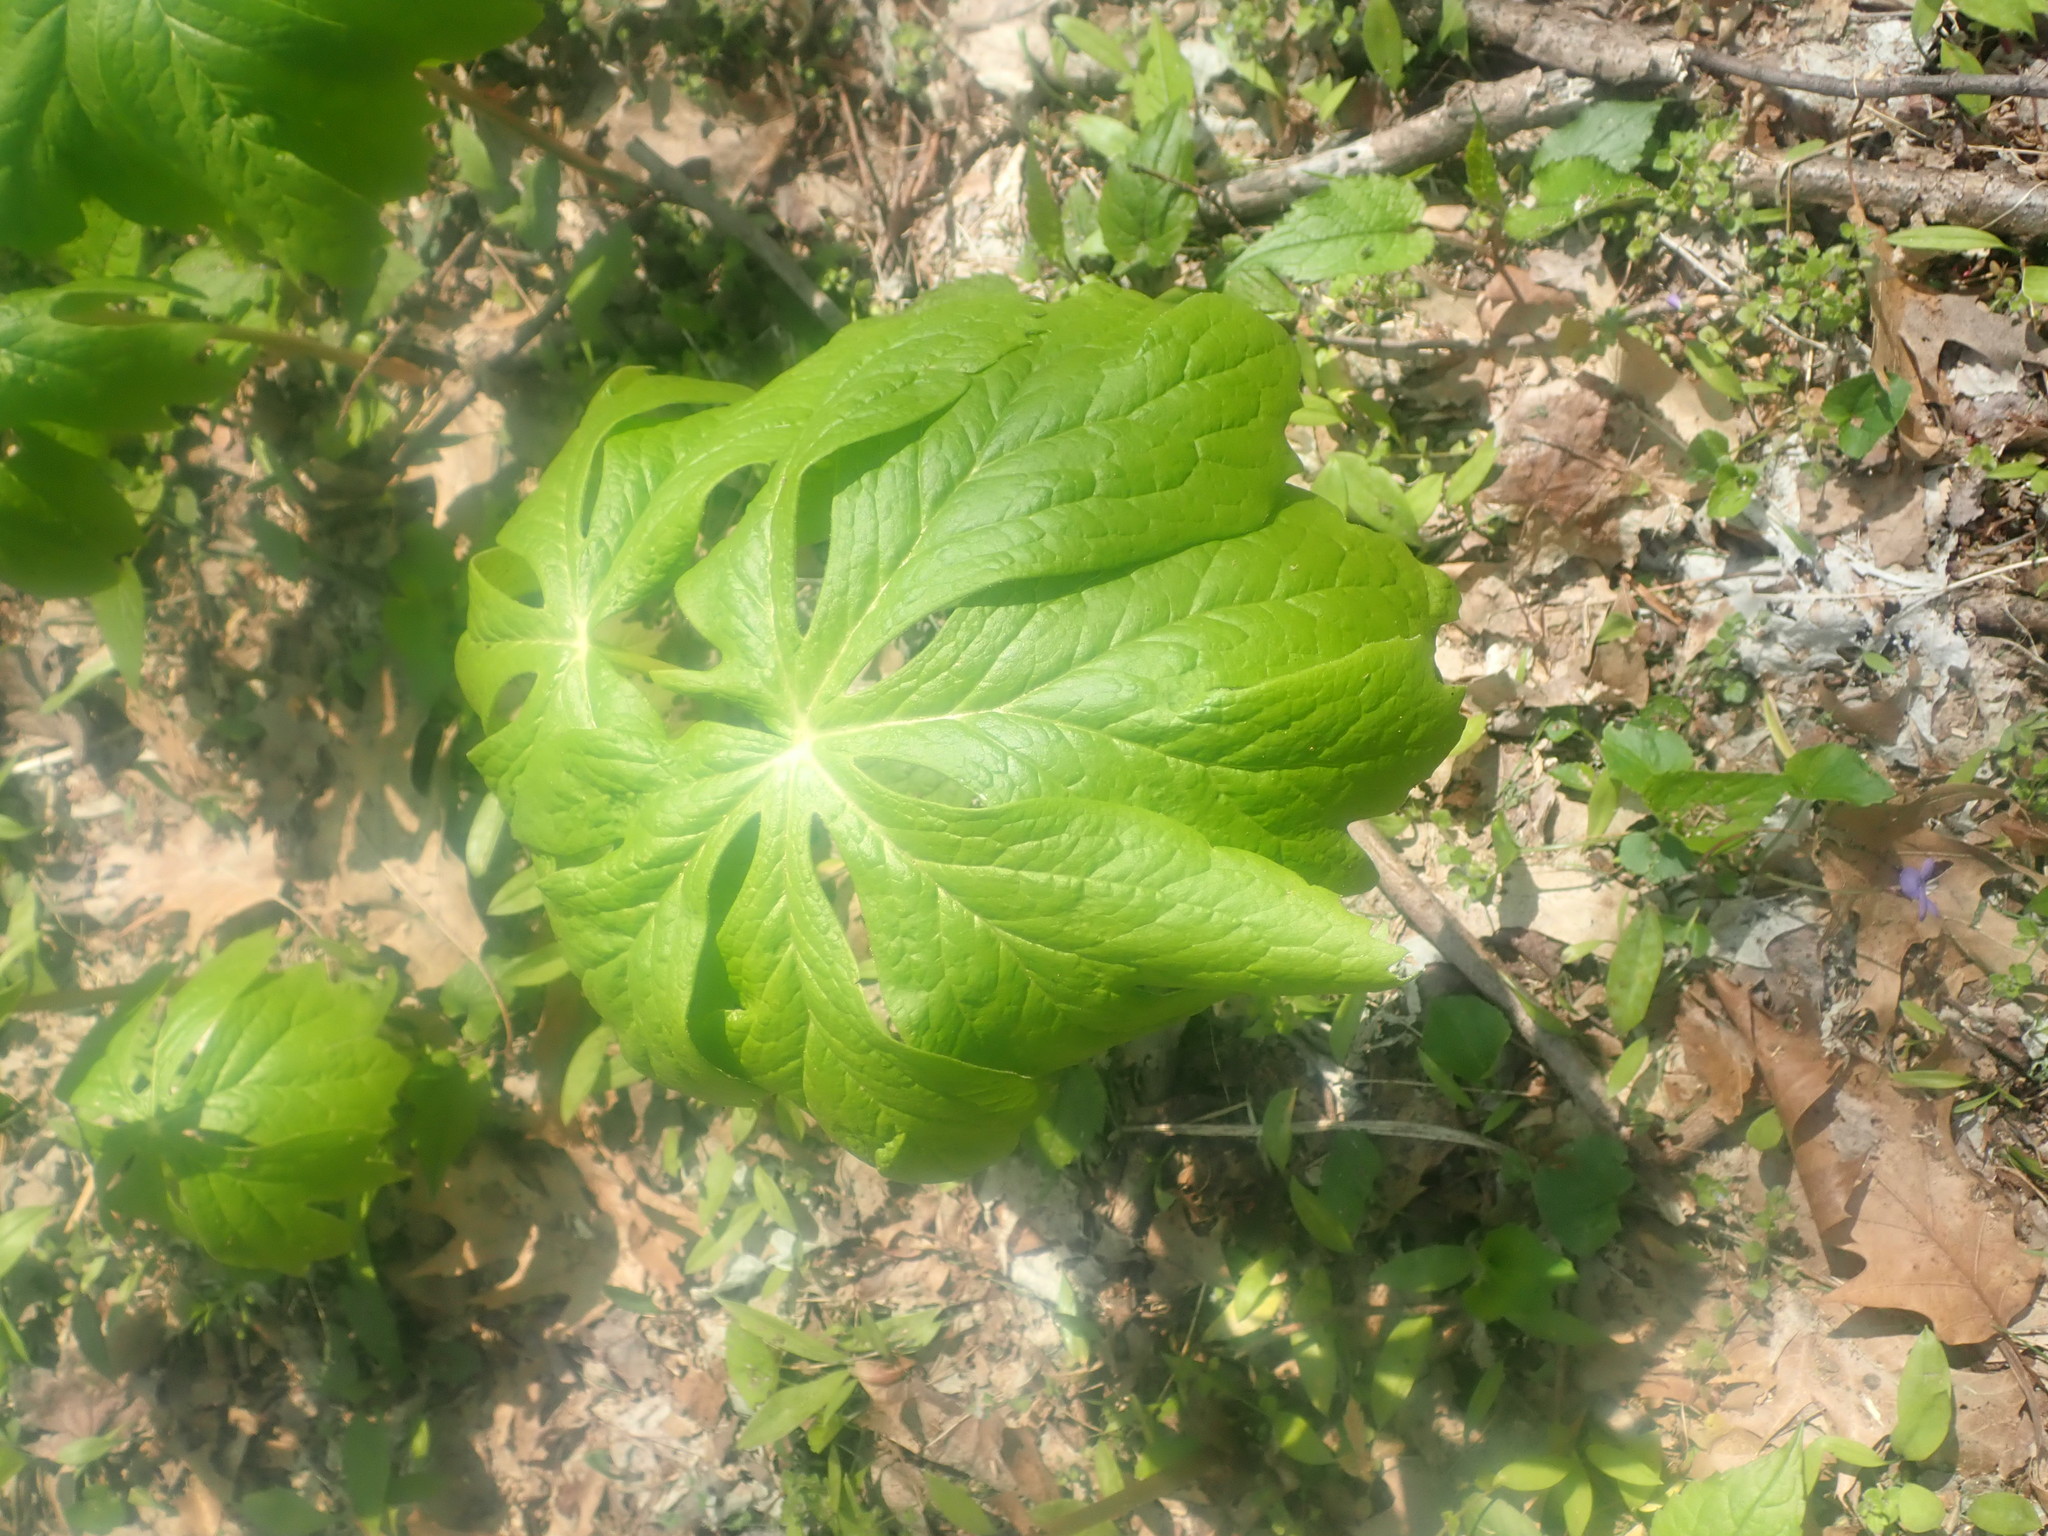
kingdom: Plantae
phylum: Tracheophyta
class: Magnoliopsida
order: Ranunculales
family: Berberidaceae
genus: Podophyllum
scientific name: Podophyllum peltatum
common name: Wild mandrake
